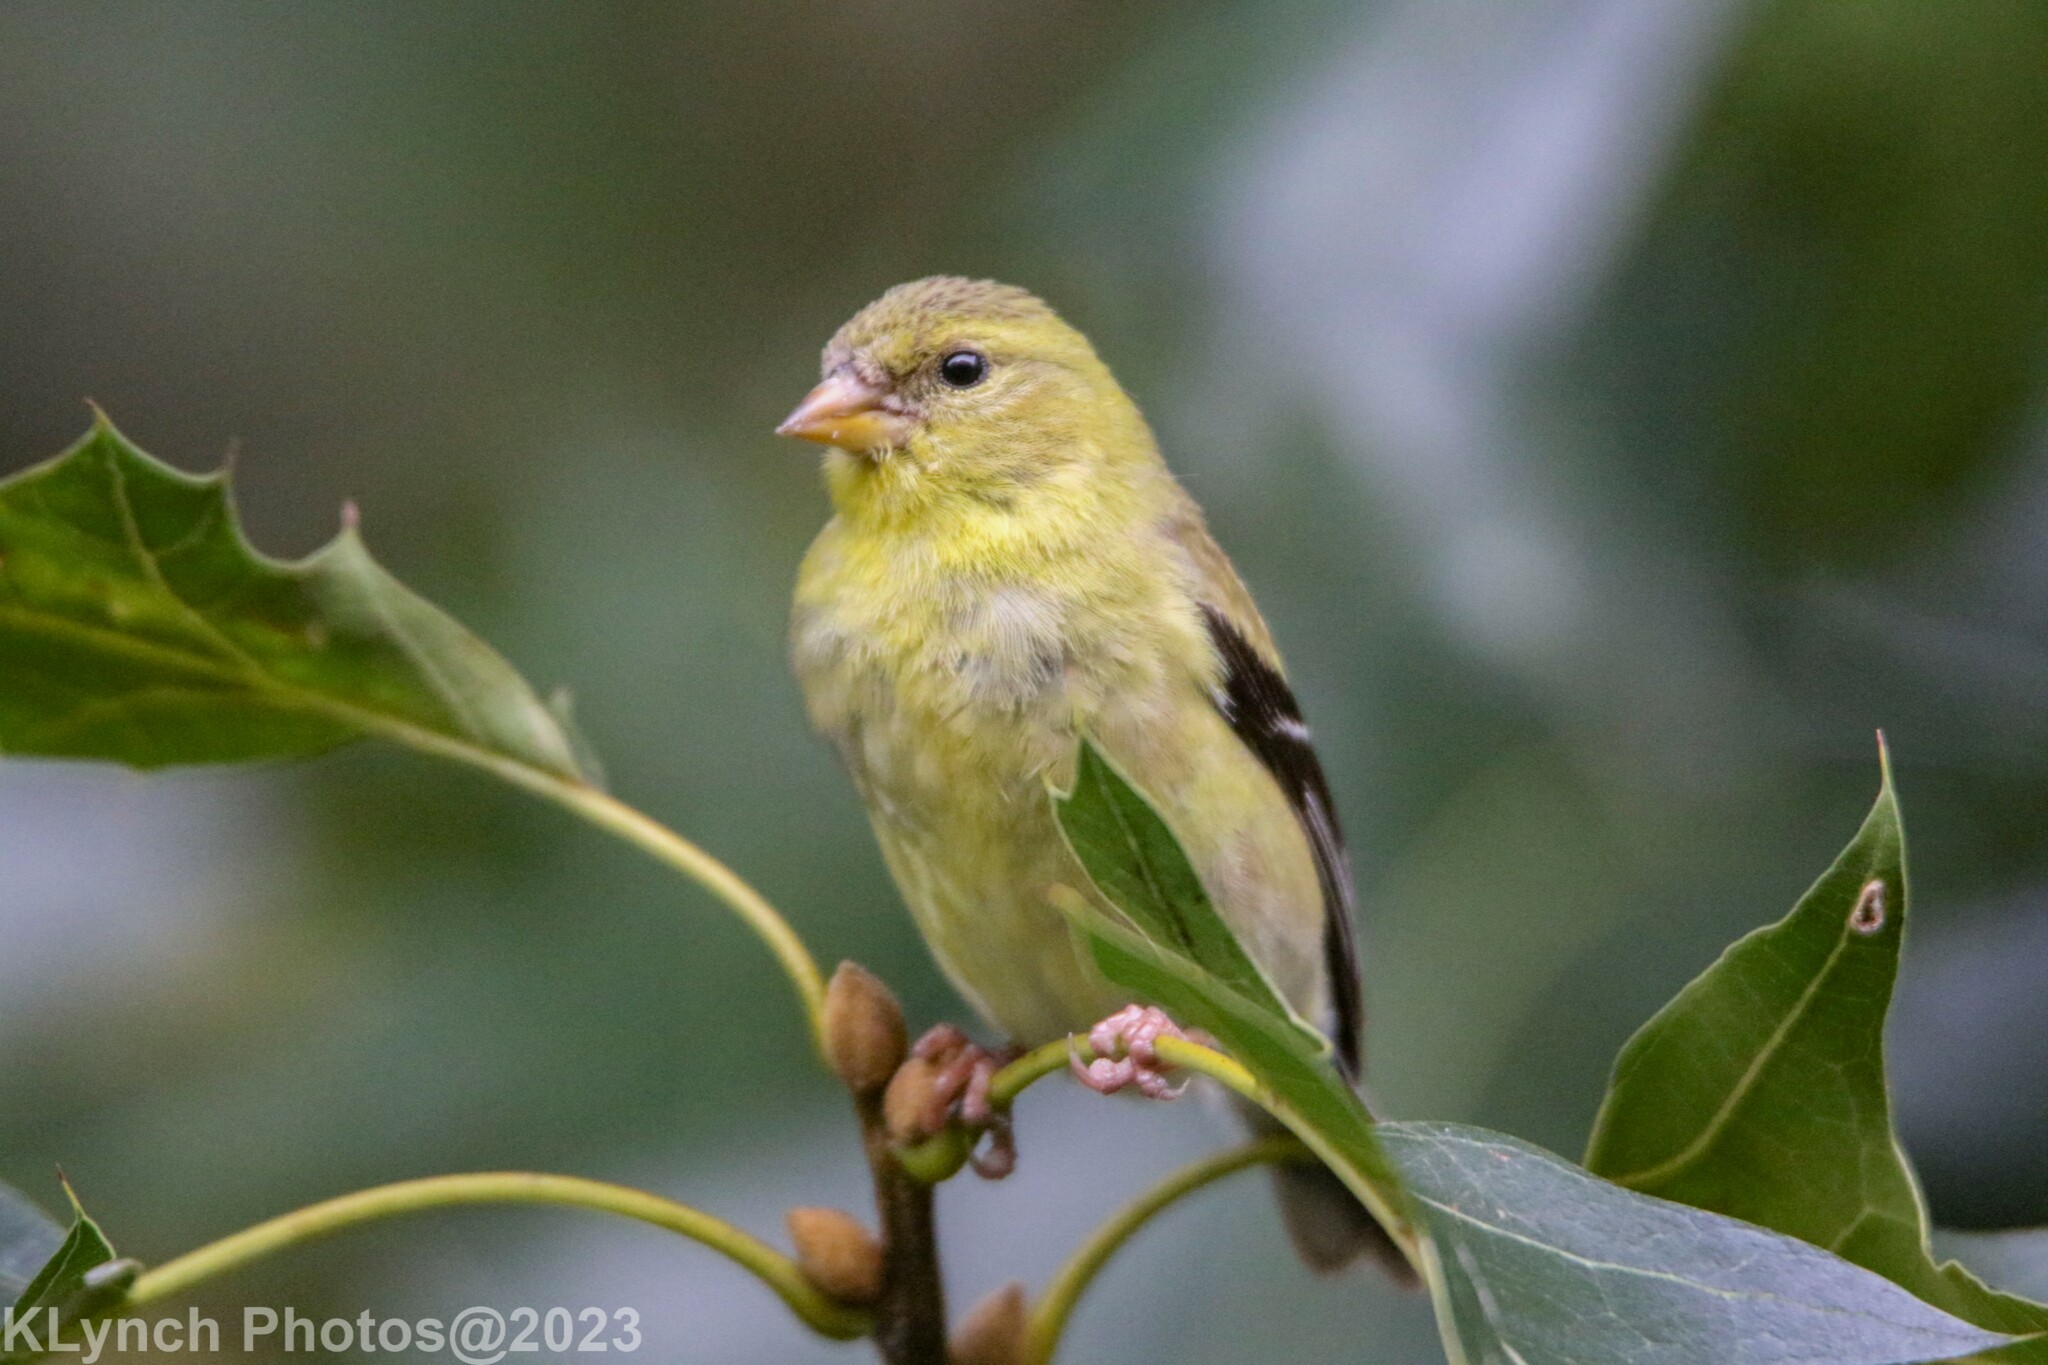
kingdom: Animalia
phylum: Chordata
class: Aves
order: Passeriformes
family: Fringillidae
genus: Spinus
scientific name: Spinus tristis
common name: American goldfinch
